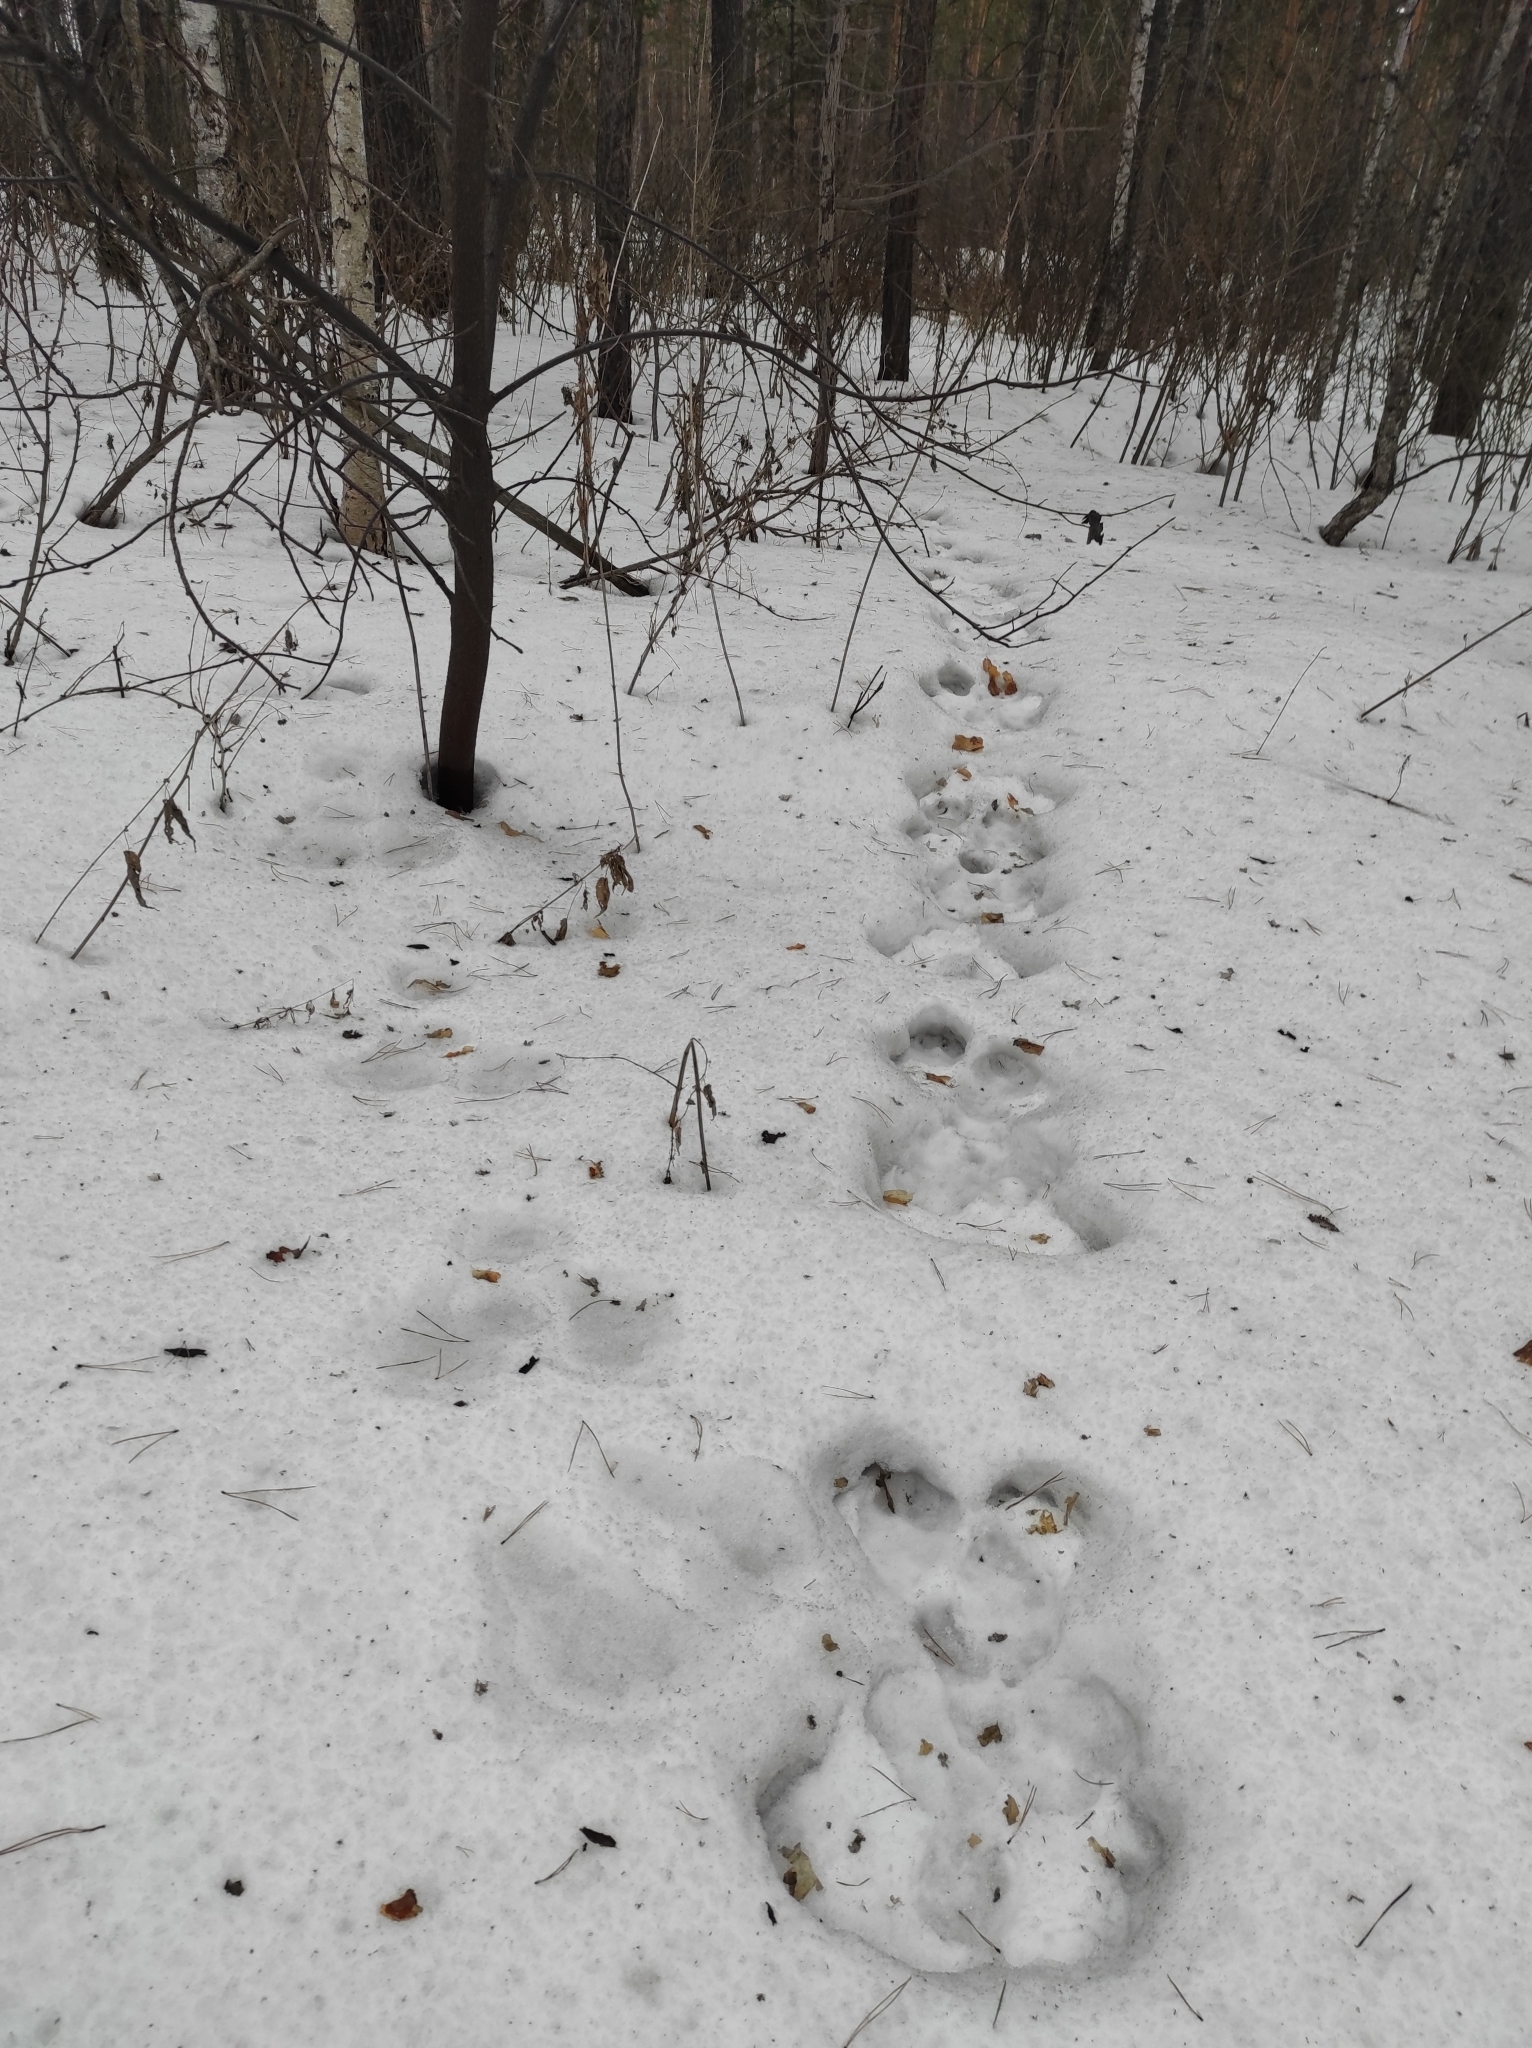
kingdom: Animalia
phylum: Chordata
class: Mammalia
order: Lagomorpha
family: Leporidae
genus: Lepus
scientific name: Lepus timidus
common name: Mountain hare
